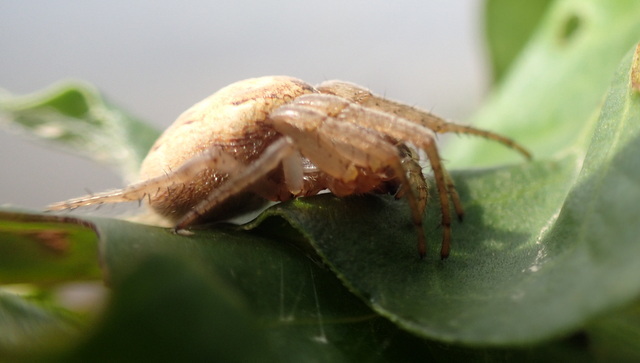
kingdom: Animalia
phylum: Arthropoda
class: Arachnida
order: Araneae
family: Araneidae
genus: Larinioides
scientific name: Larinioides cornutus
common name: Furrow orbweaver
